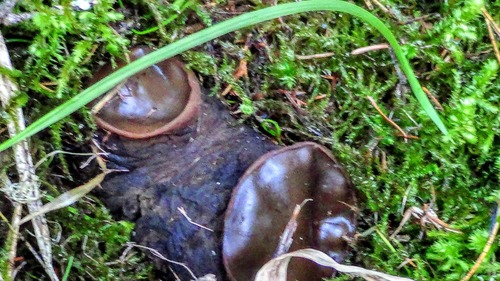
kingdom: Fungi
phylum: Ascomycota
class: Pezizomycetes
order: Pezizales
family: Sarcosomataceae
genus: Sarcosoma
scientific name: Sarcosoma globosum
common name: Charred-pancake cup
